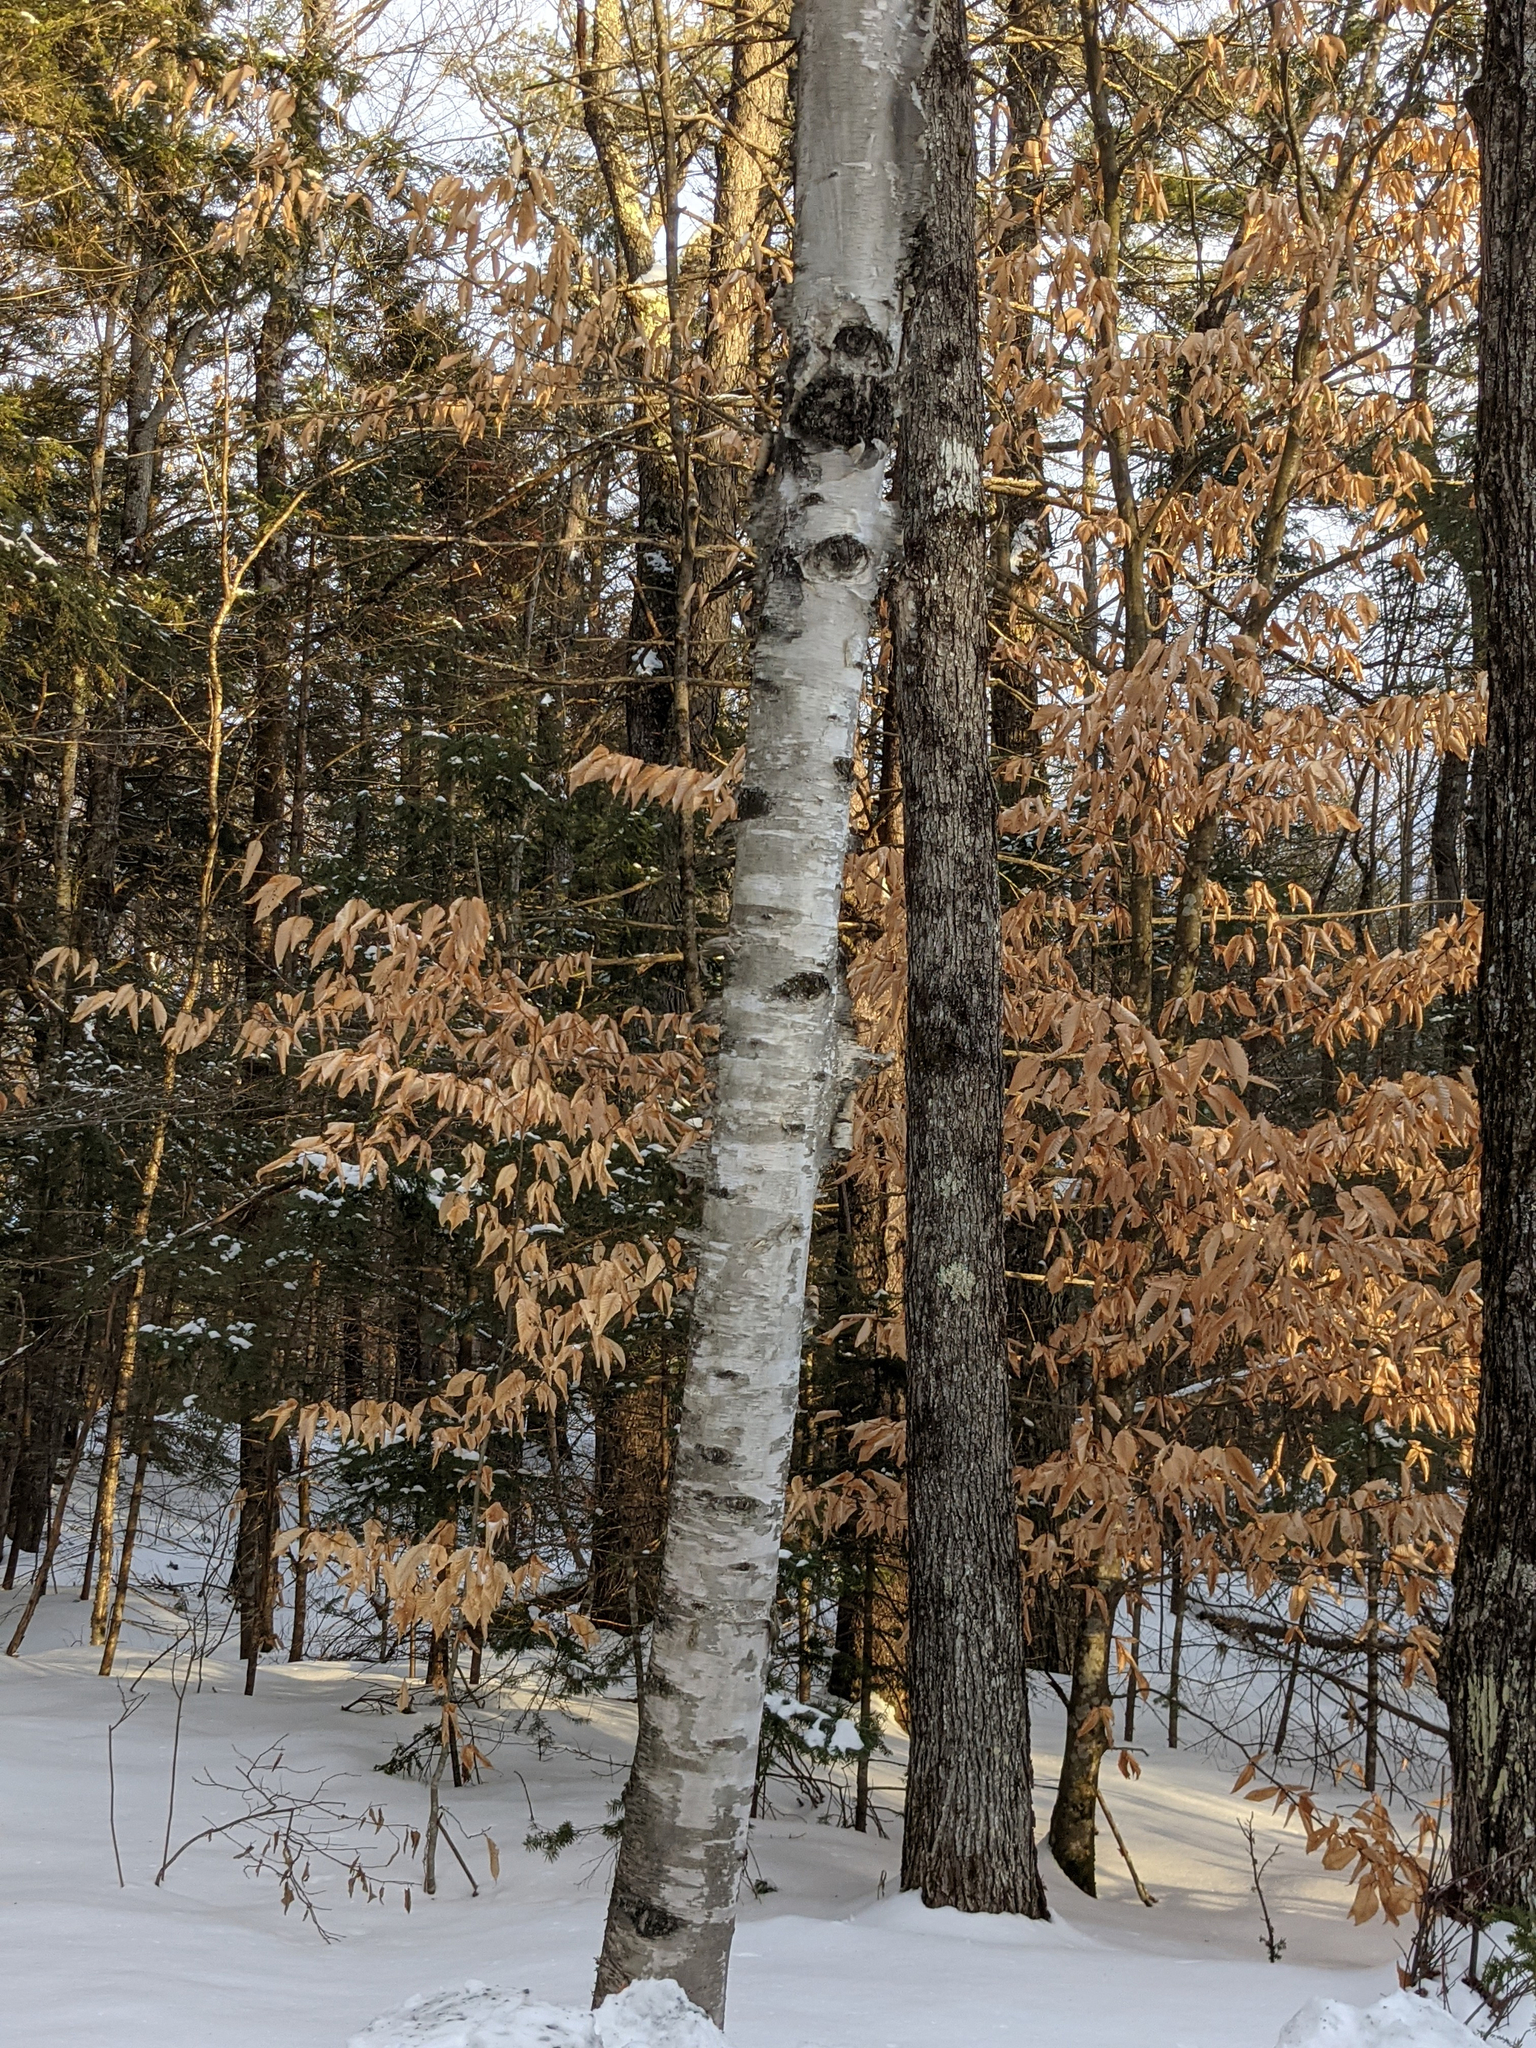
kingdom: Plantae
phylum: Tracheophyta
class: Magnoliopsida
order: Fagales
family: Fagaceae
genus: Fagus
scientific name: Fagus grandifolia
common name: American beech
